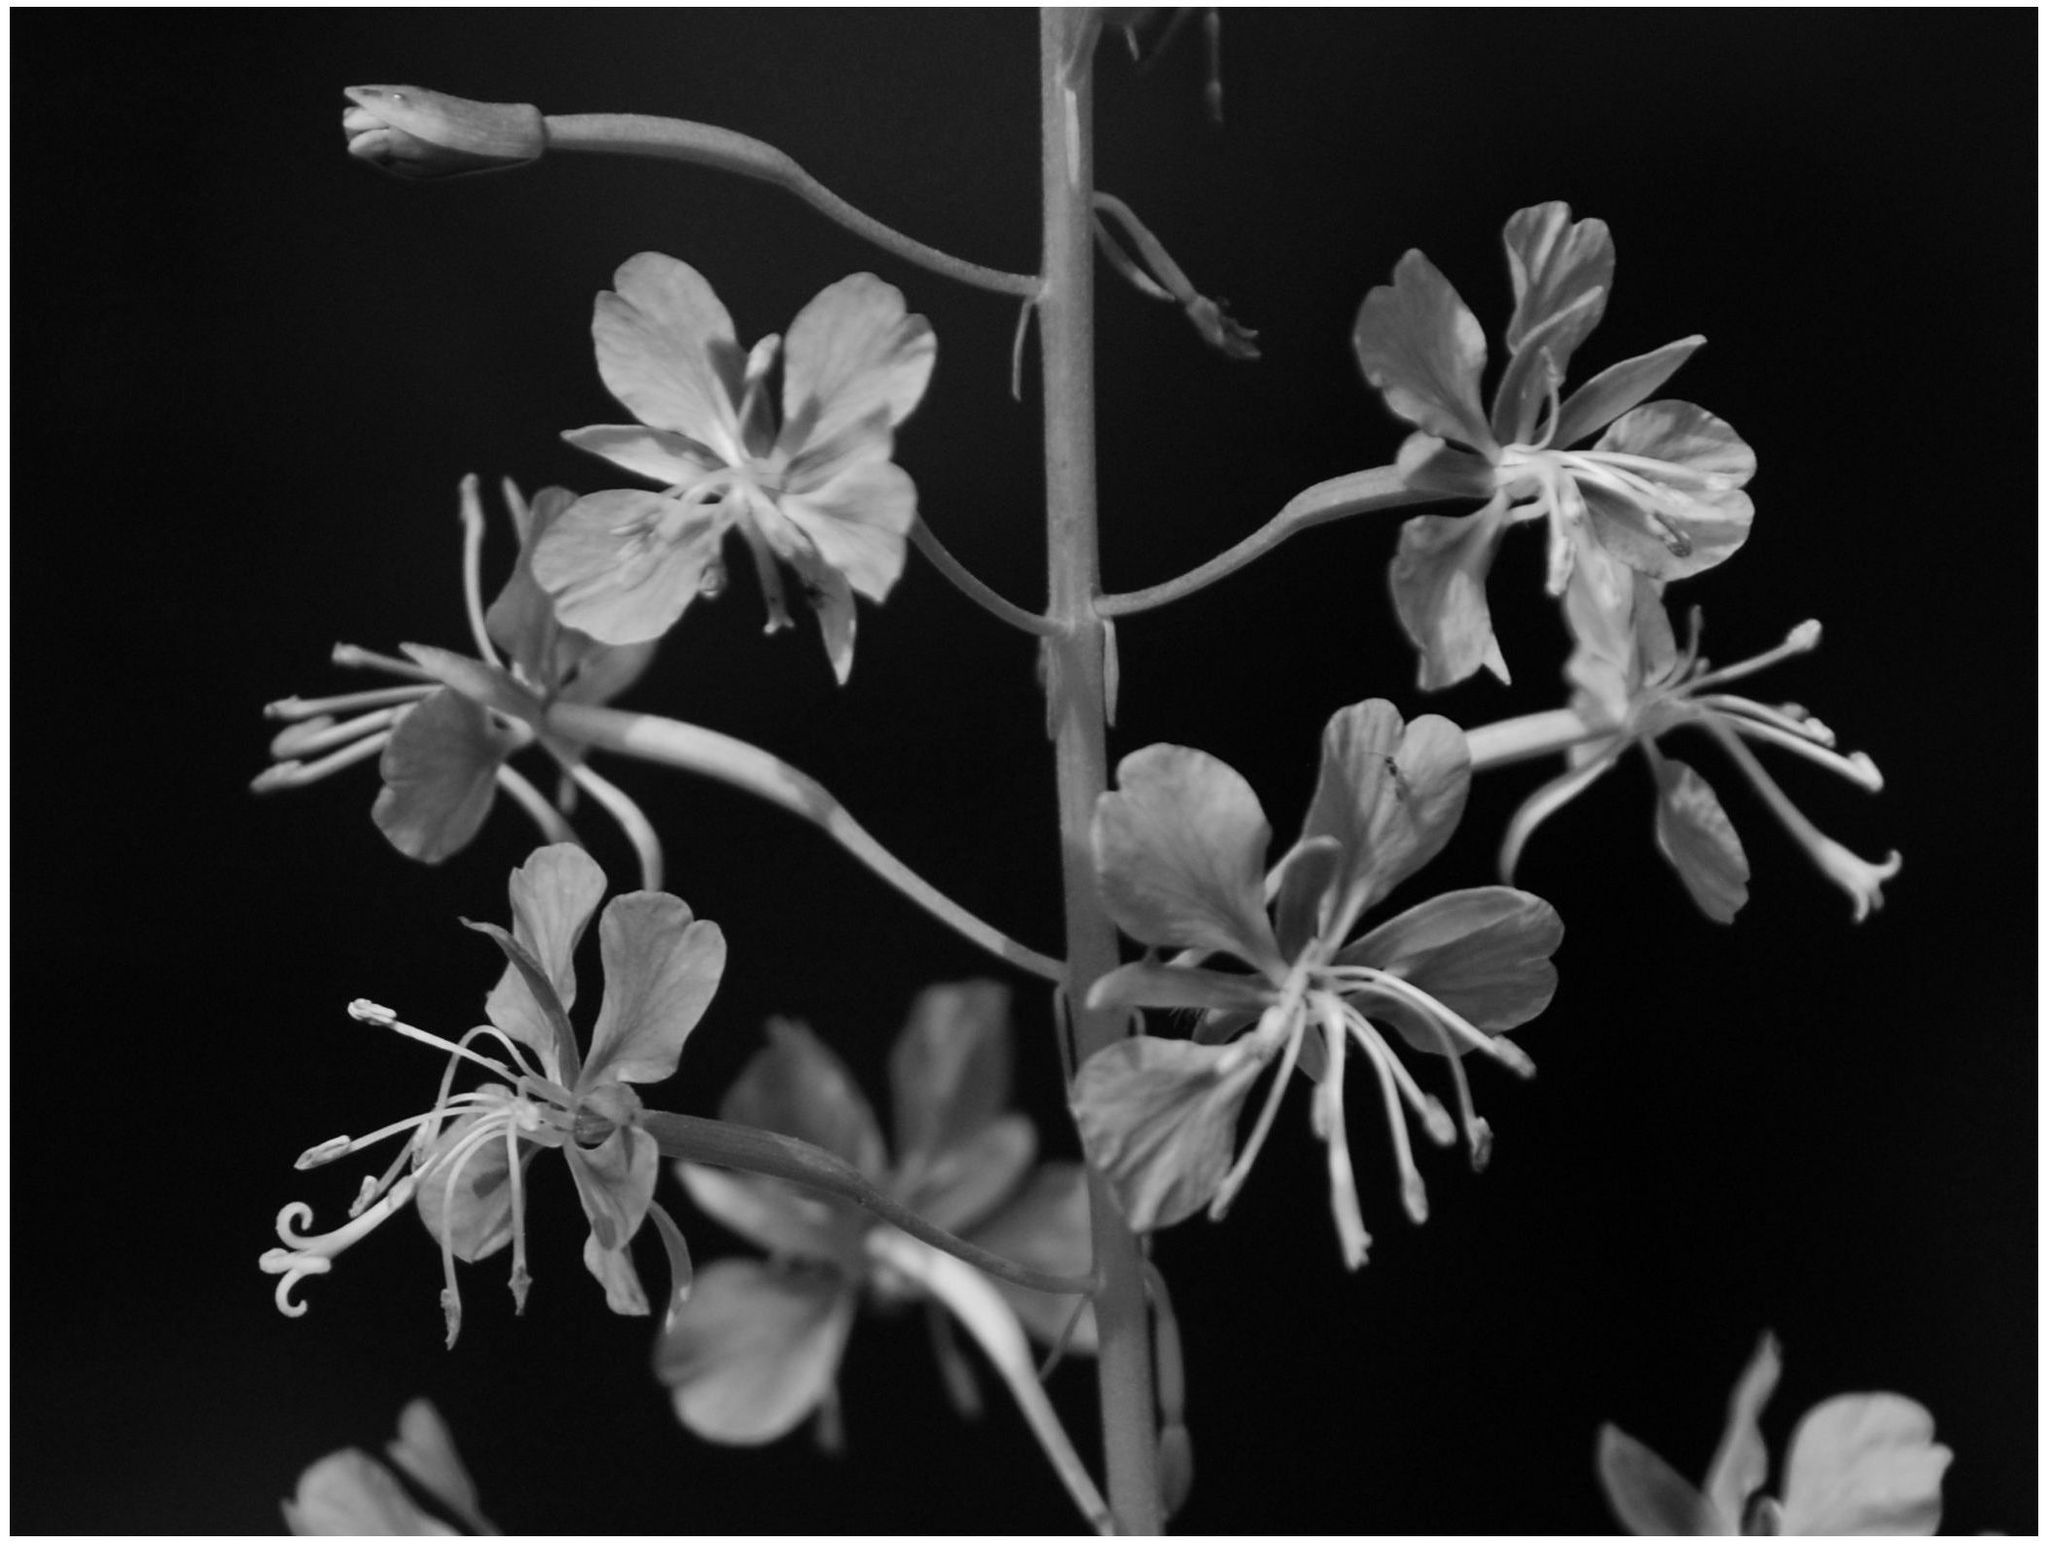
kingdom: Plantae
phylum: Tracheophyta
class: Magnoliopsida
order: Myrtales
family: Onagraceae
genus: Chamaenerion
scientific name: Chamaenerion angustifolium
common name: Fireweed
